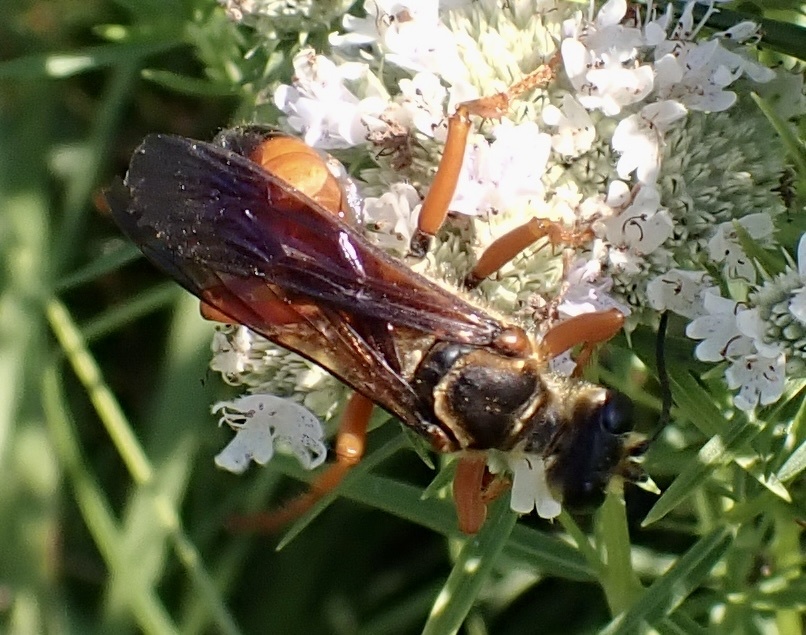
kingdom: Animalia
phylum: Arthropoda
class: Insecta
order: Hymenoptera
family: Sphecidae
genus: Sphex
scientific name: Sphex ichneumoneus
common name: Great golden digger wasp
